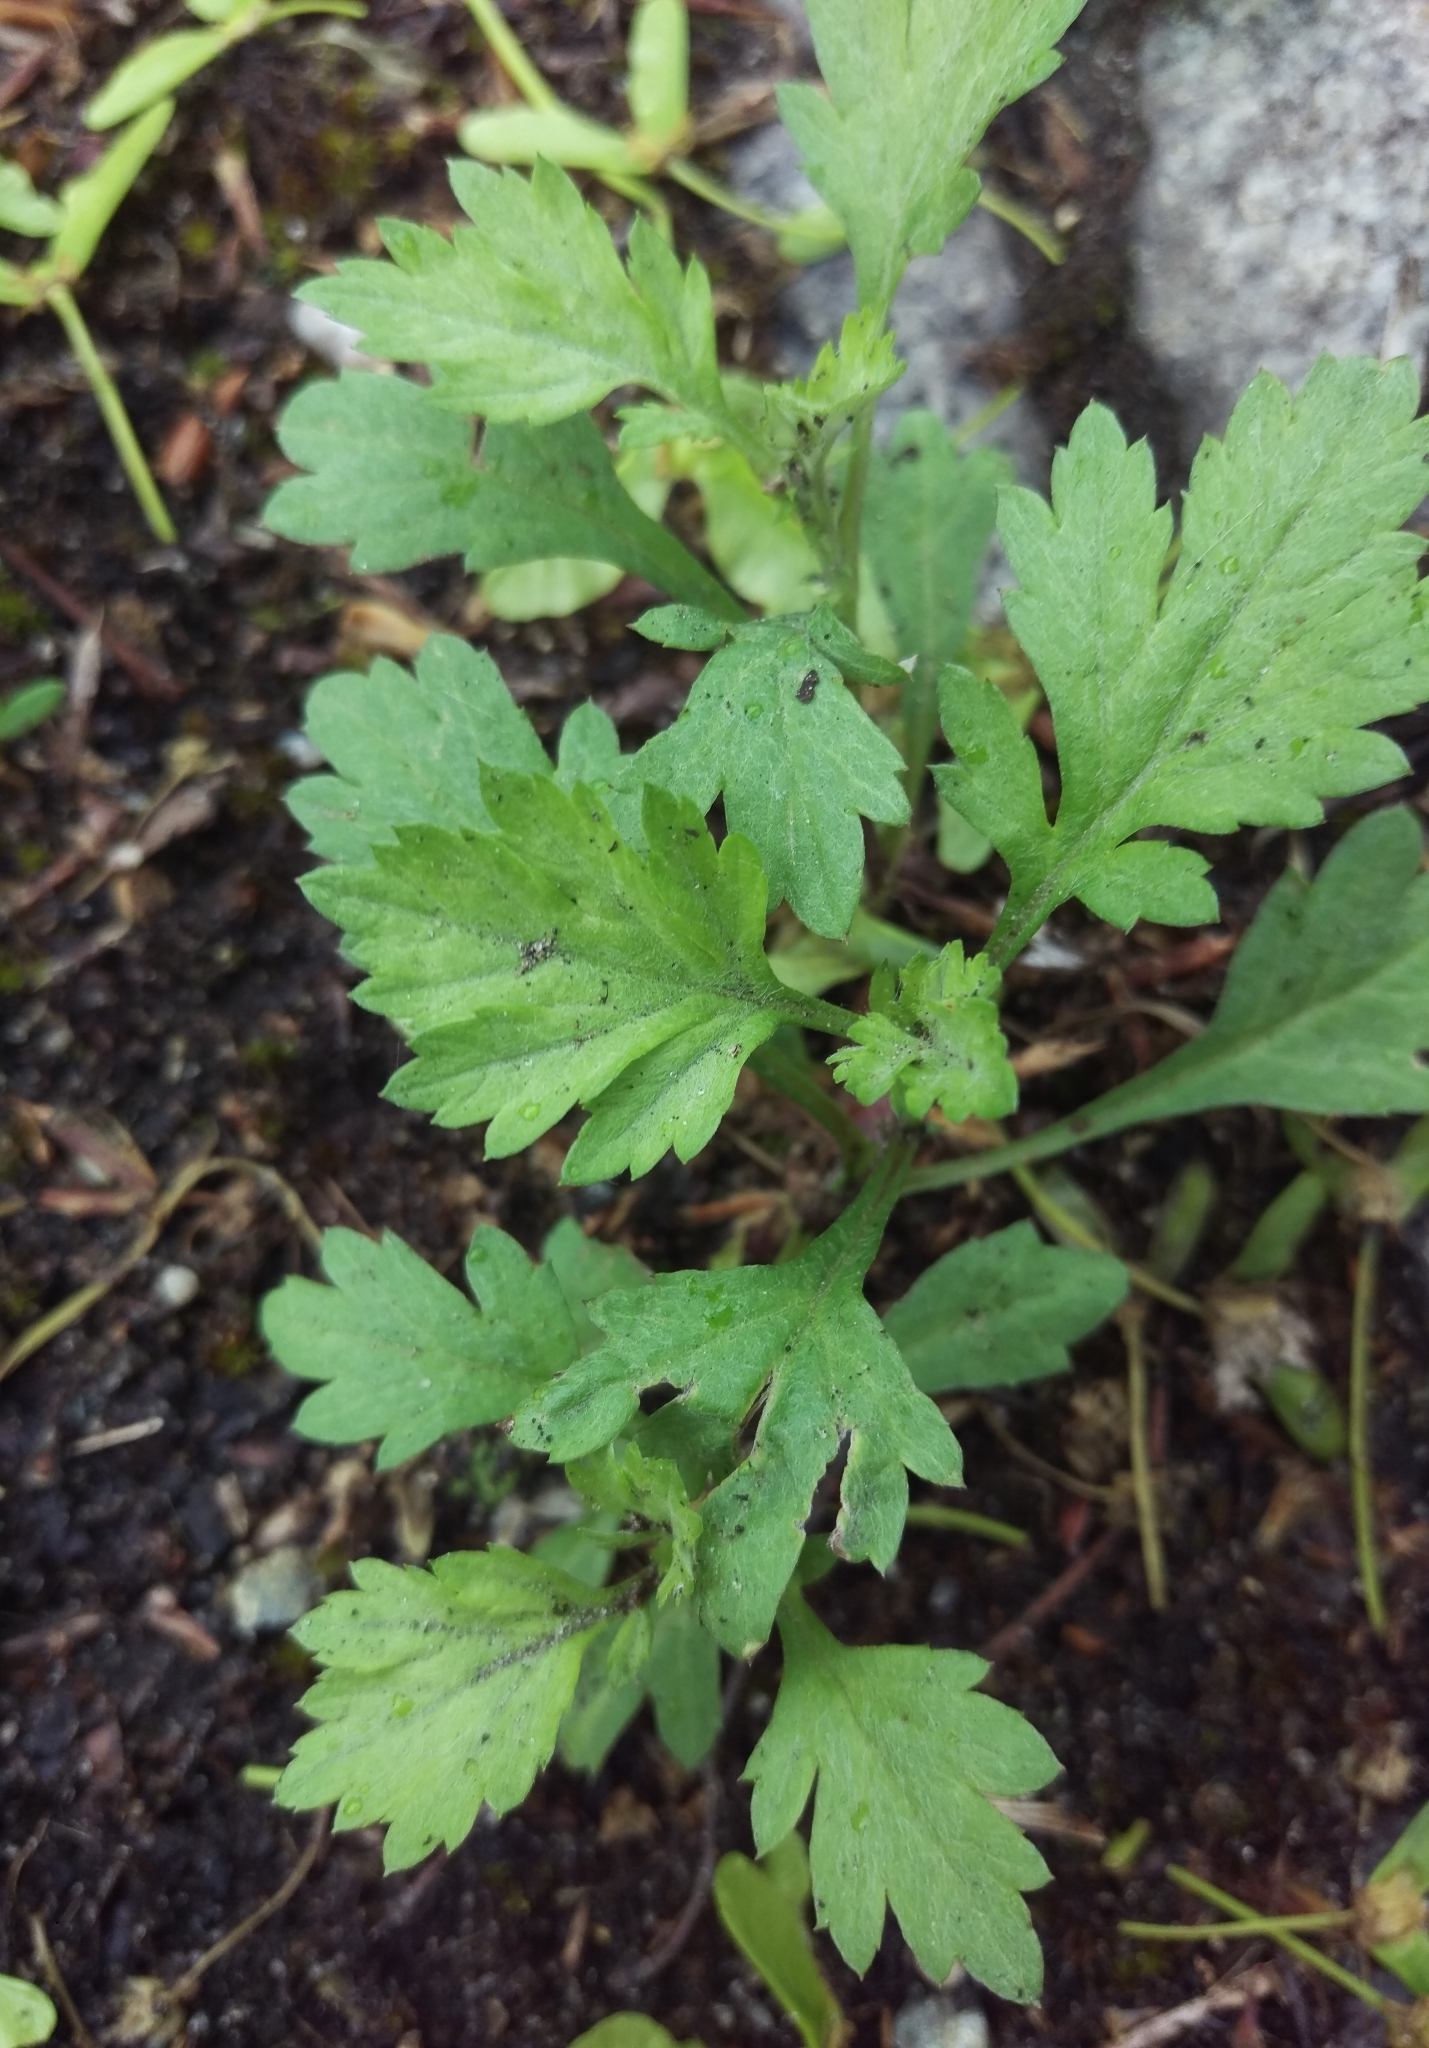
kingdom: Plantae
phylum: Tracheophyta
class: Magnoliopsida
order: Asterales
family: Asteraceae
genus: Artemisia
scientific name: Artemisia vulgaris
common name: Mugwort
